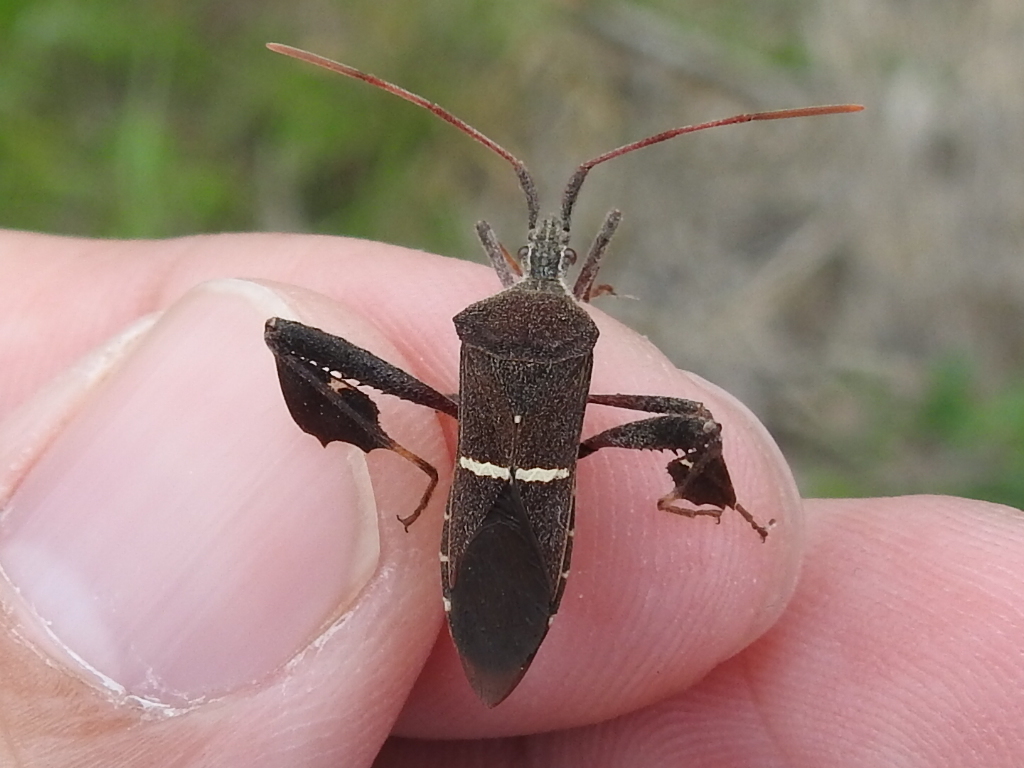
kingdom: Animalia
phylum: Arthropoda
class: Insecta
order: Hemiptera
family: Coreidae
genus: Leptoglossus
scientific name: Leptoglossus phyllopus
